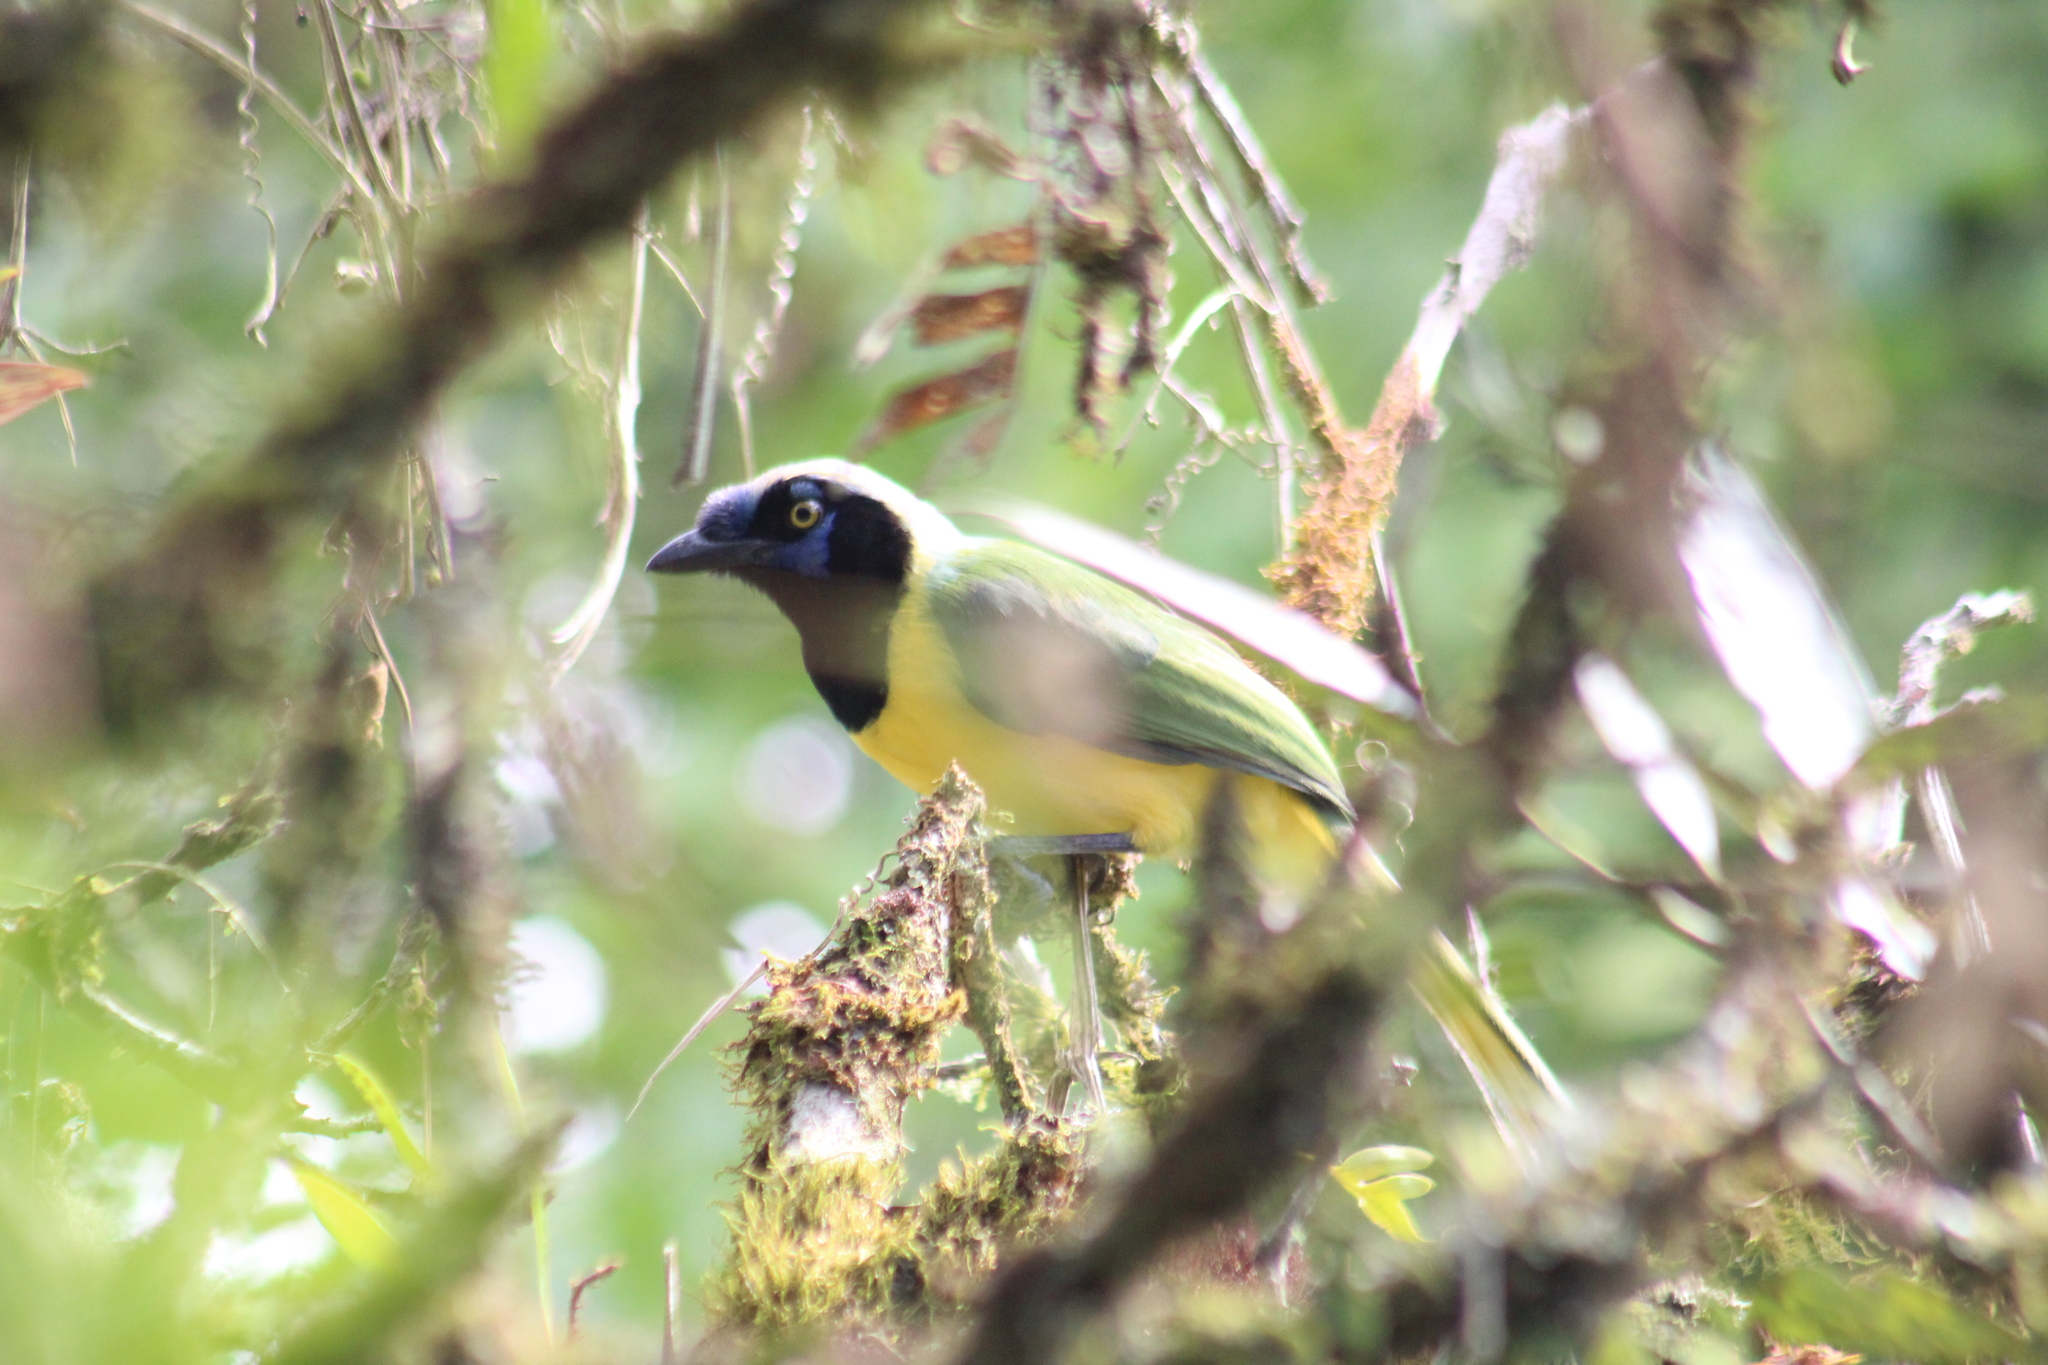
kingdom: Animalia
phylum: Chordata
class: Aves
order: Passeriformes
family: Corvidae
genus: Cyanocorax
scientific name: Cyanocorax yncas
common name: Green jay
